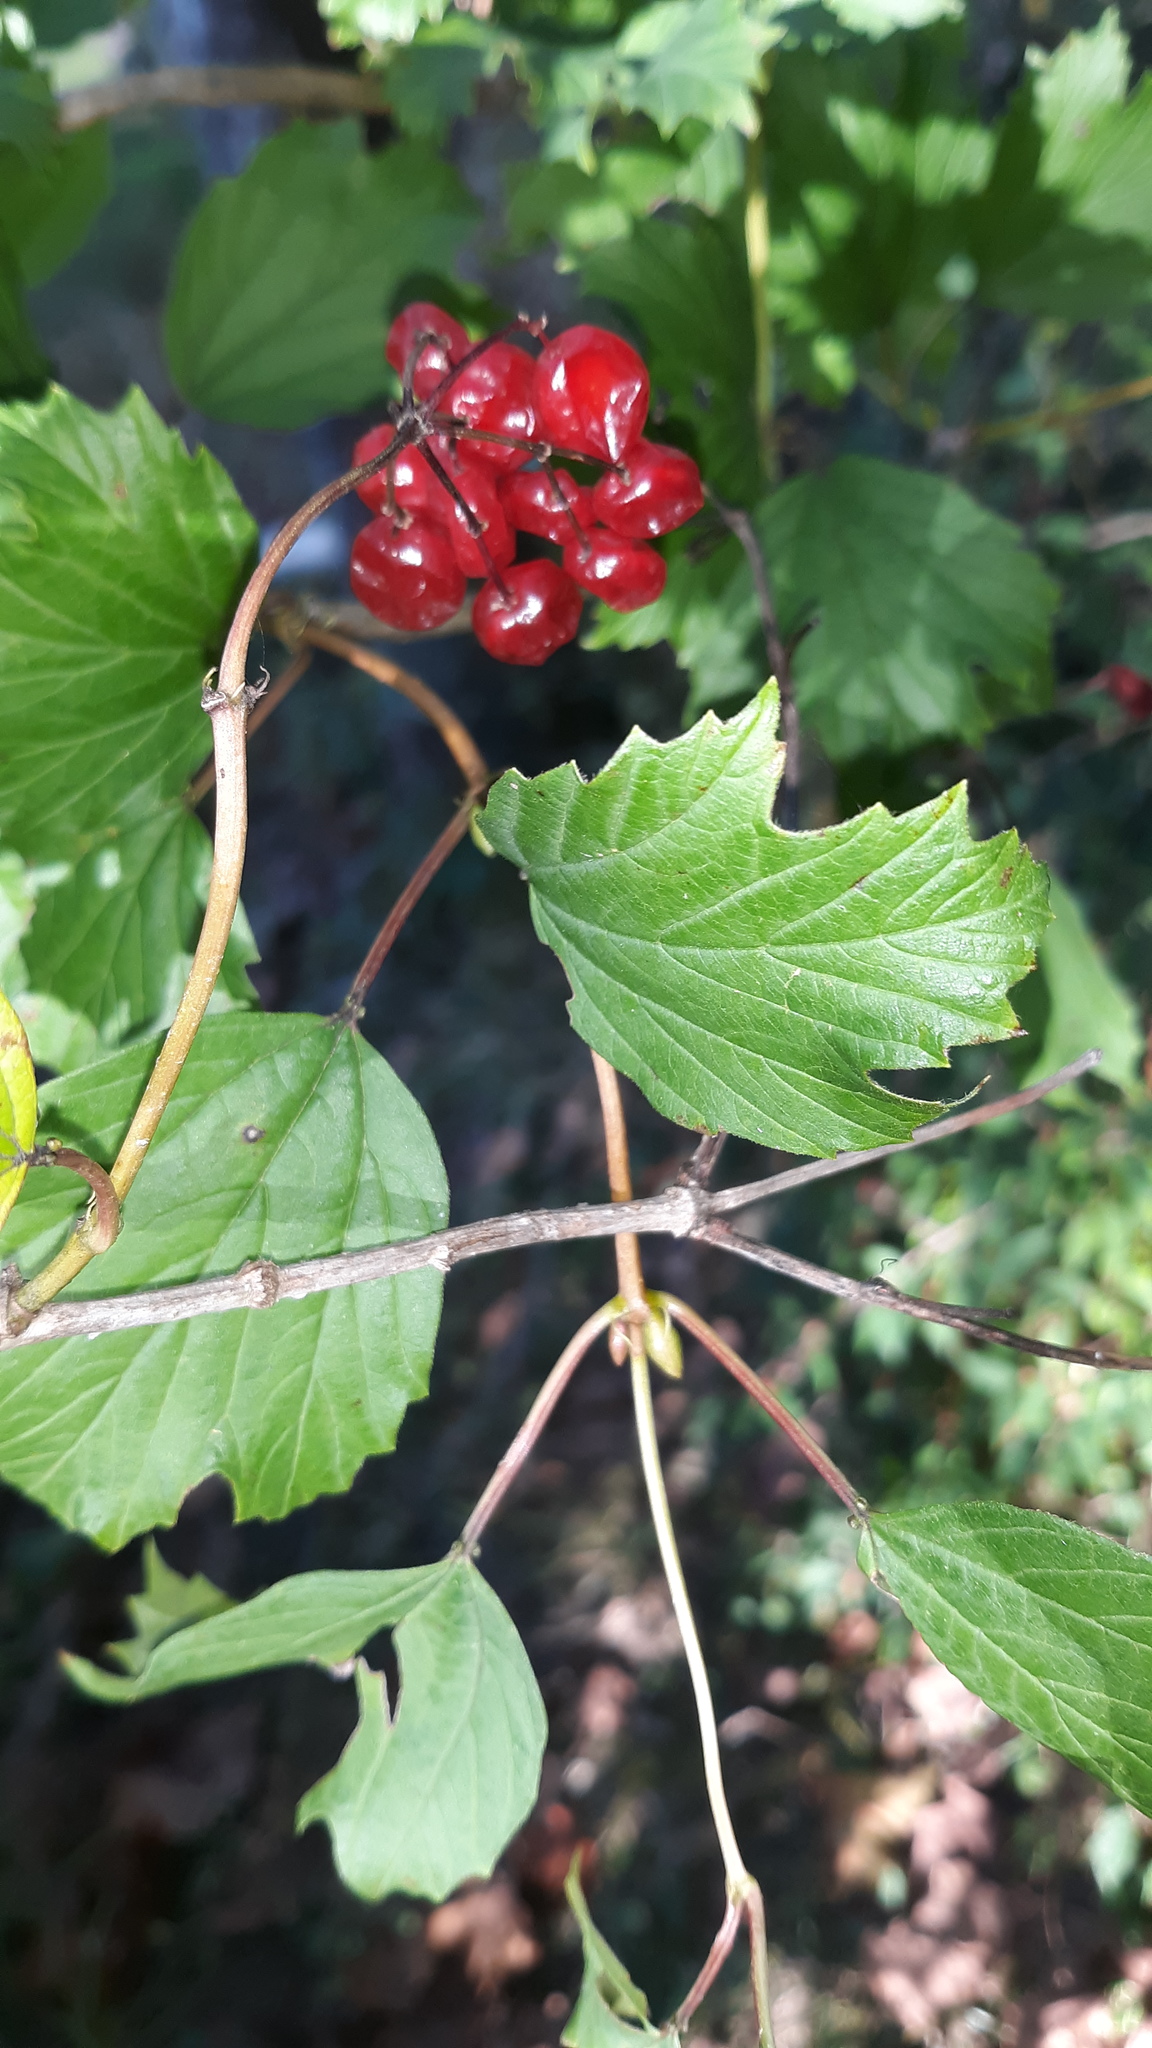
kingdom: Plantae
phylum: Tracheophyta
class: Magnoliopsida
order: Dipsacales
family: Viburnaceae
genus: Viburnum
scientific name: Viburnum opulus
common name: Guelder-rose
